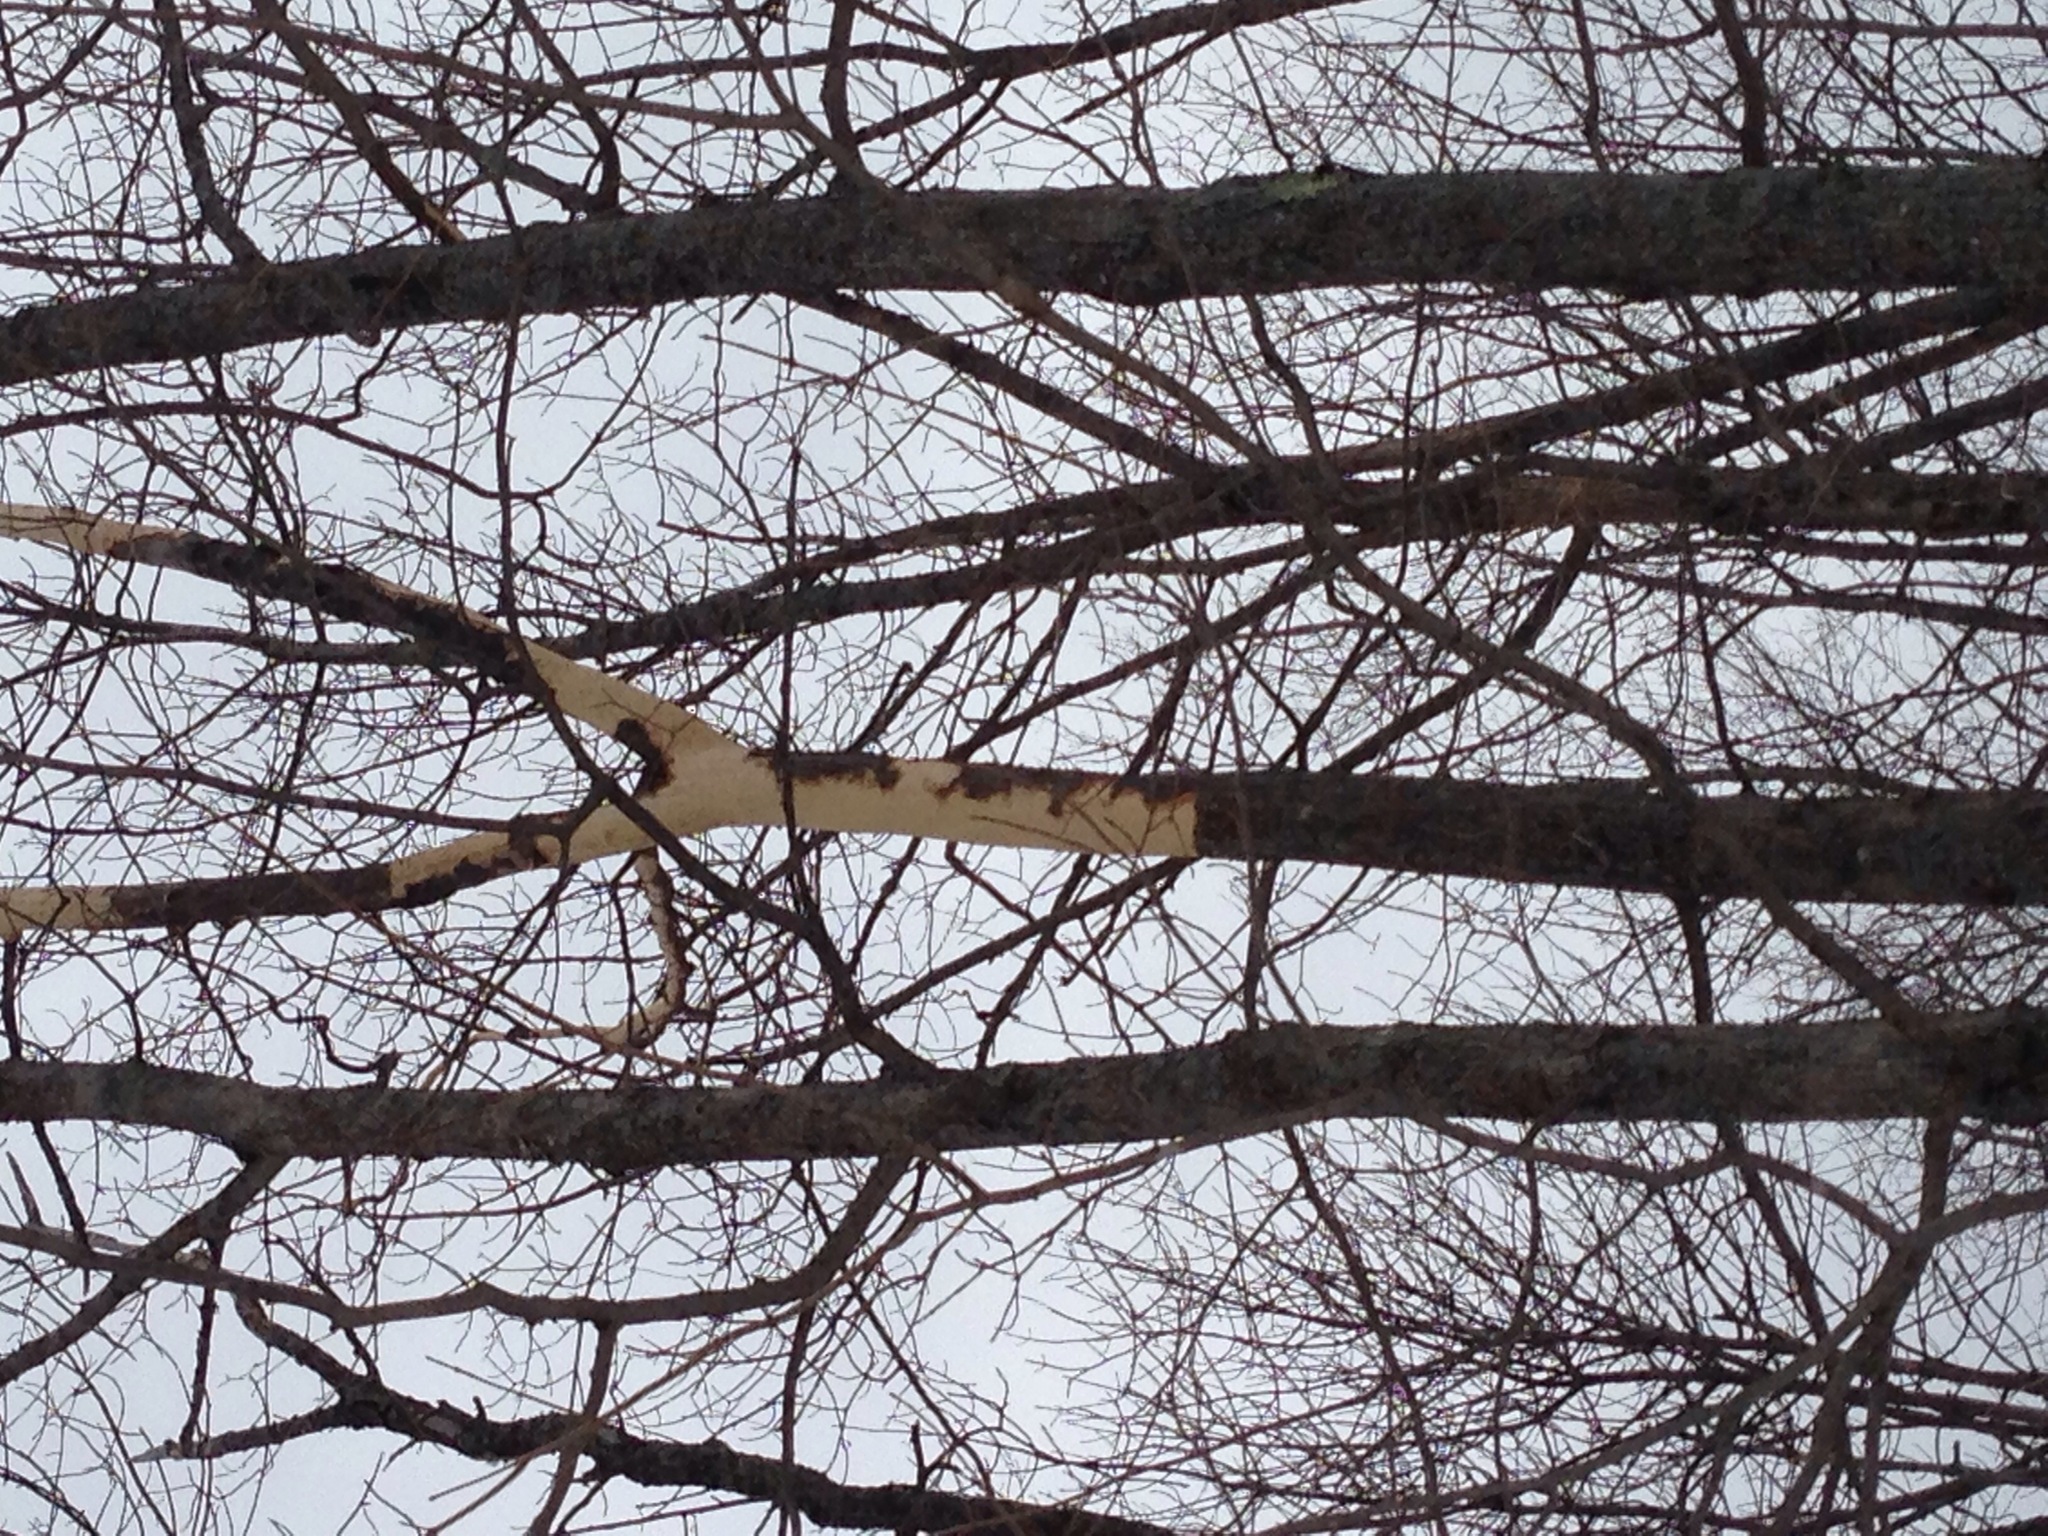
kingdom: Animalia
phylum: Chordata
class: Mammalia
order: Rodentia
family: Erethizontidae
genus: Erethizon
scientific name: Erethizon dorsatus
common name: North american porcupine
